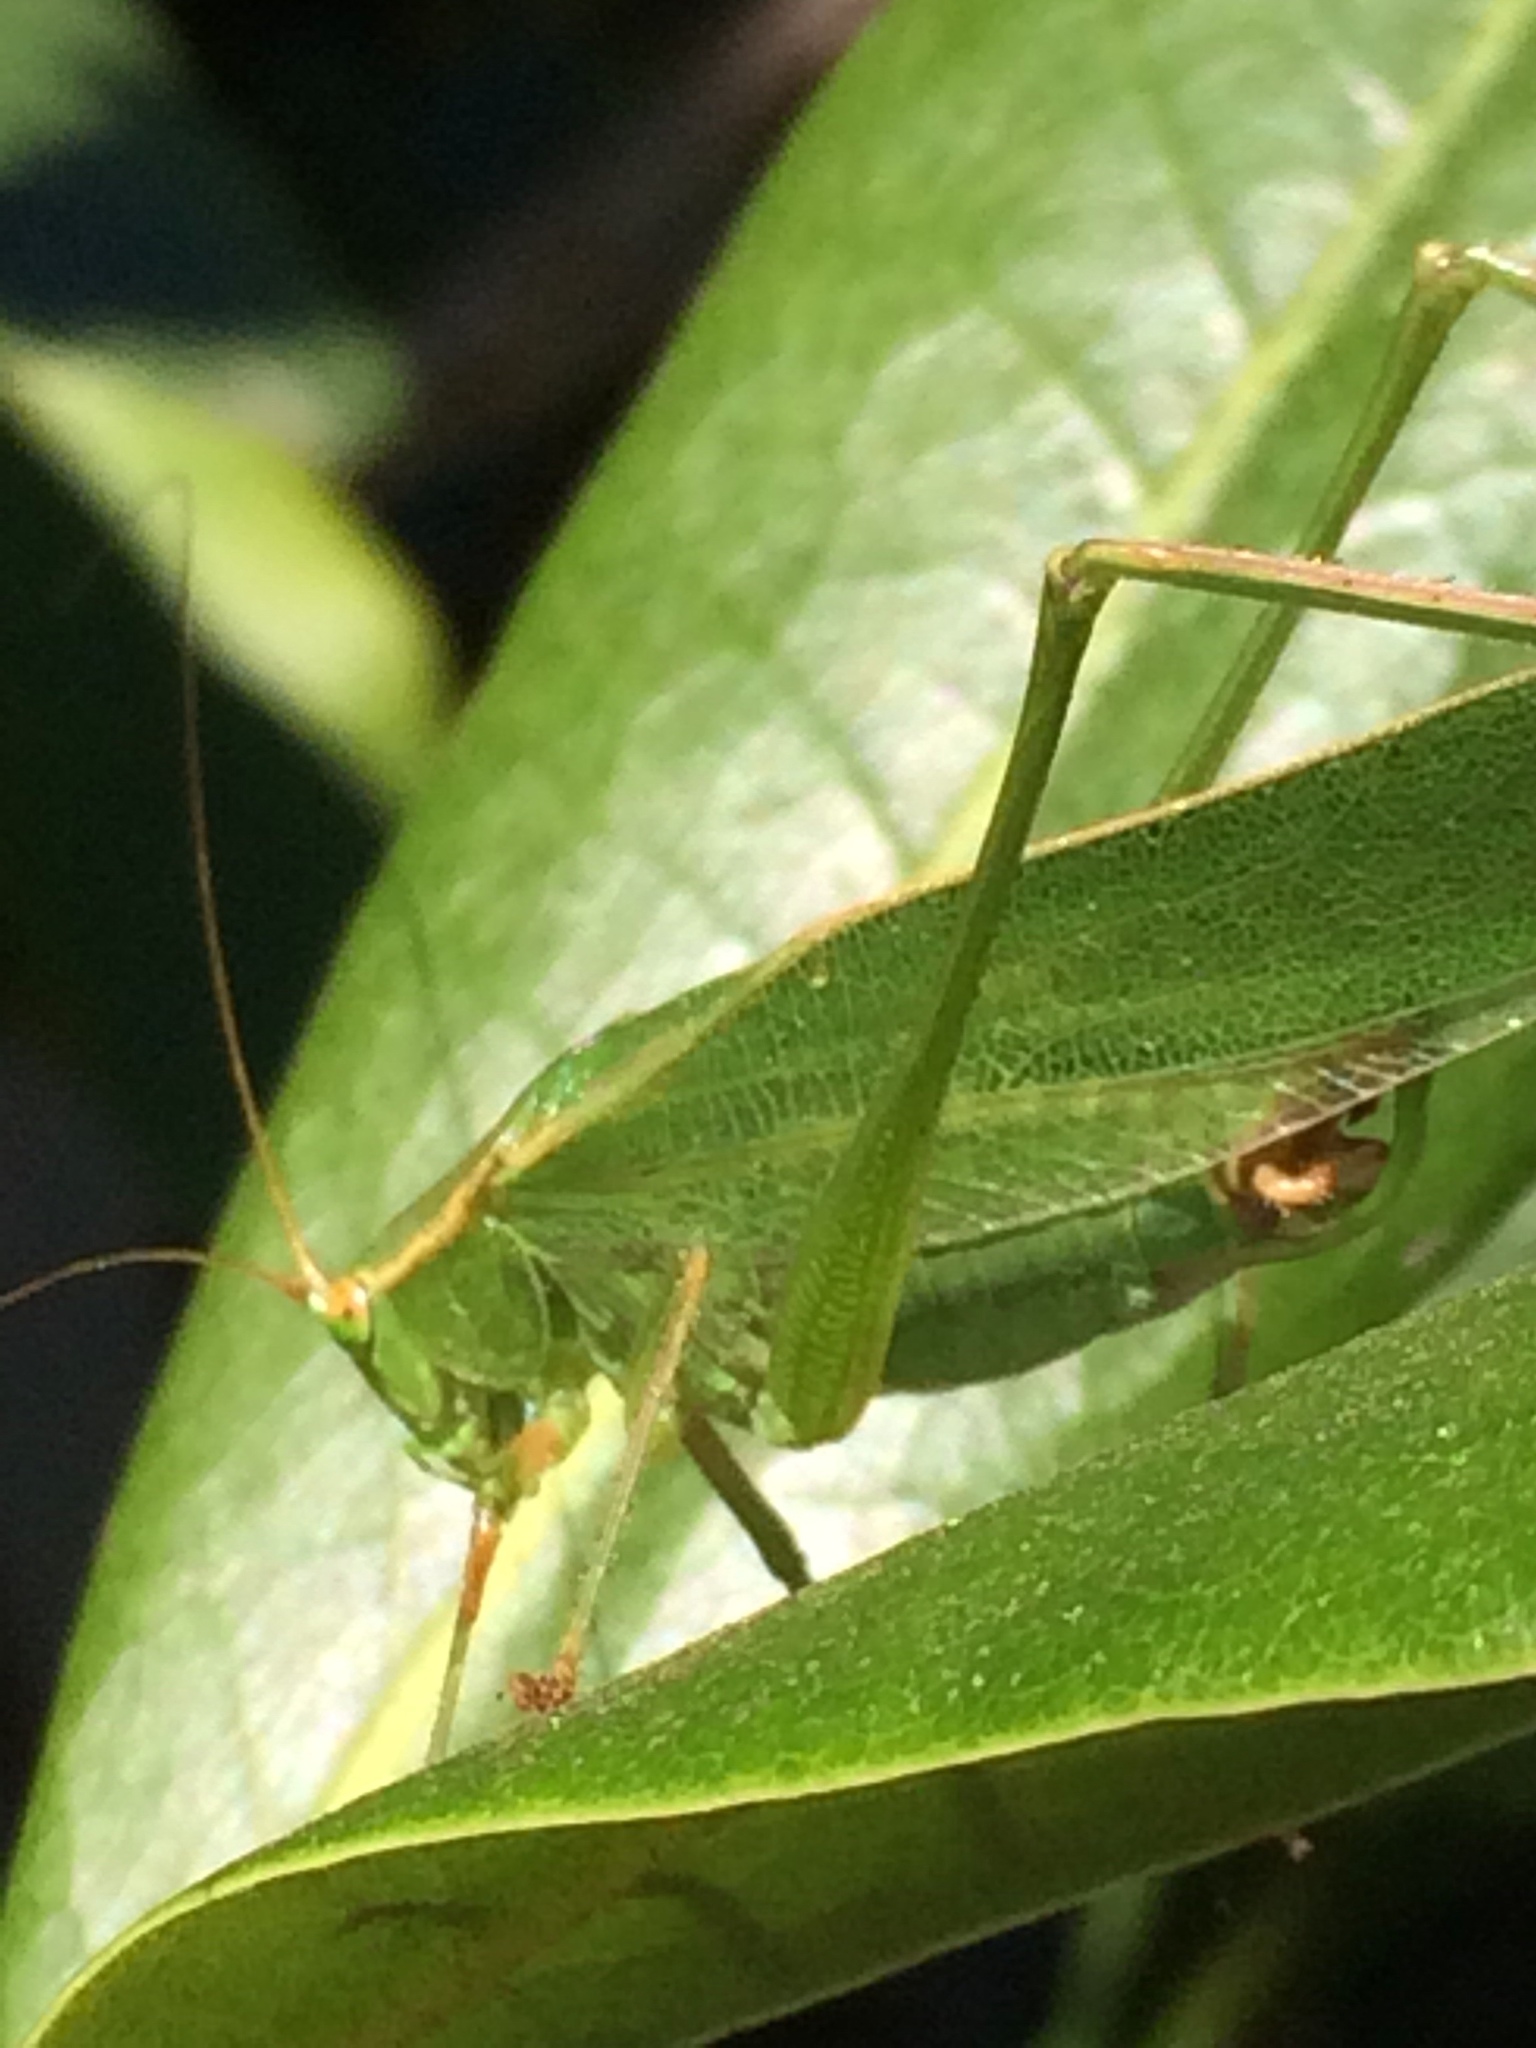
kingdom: Animalia
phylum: Arthropoda
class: Insecta
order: Orthoptera
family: Tettigoniidae
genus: Scudderia
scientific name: Scudderia furcata
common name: Fork-tailed bush katydid
